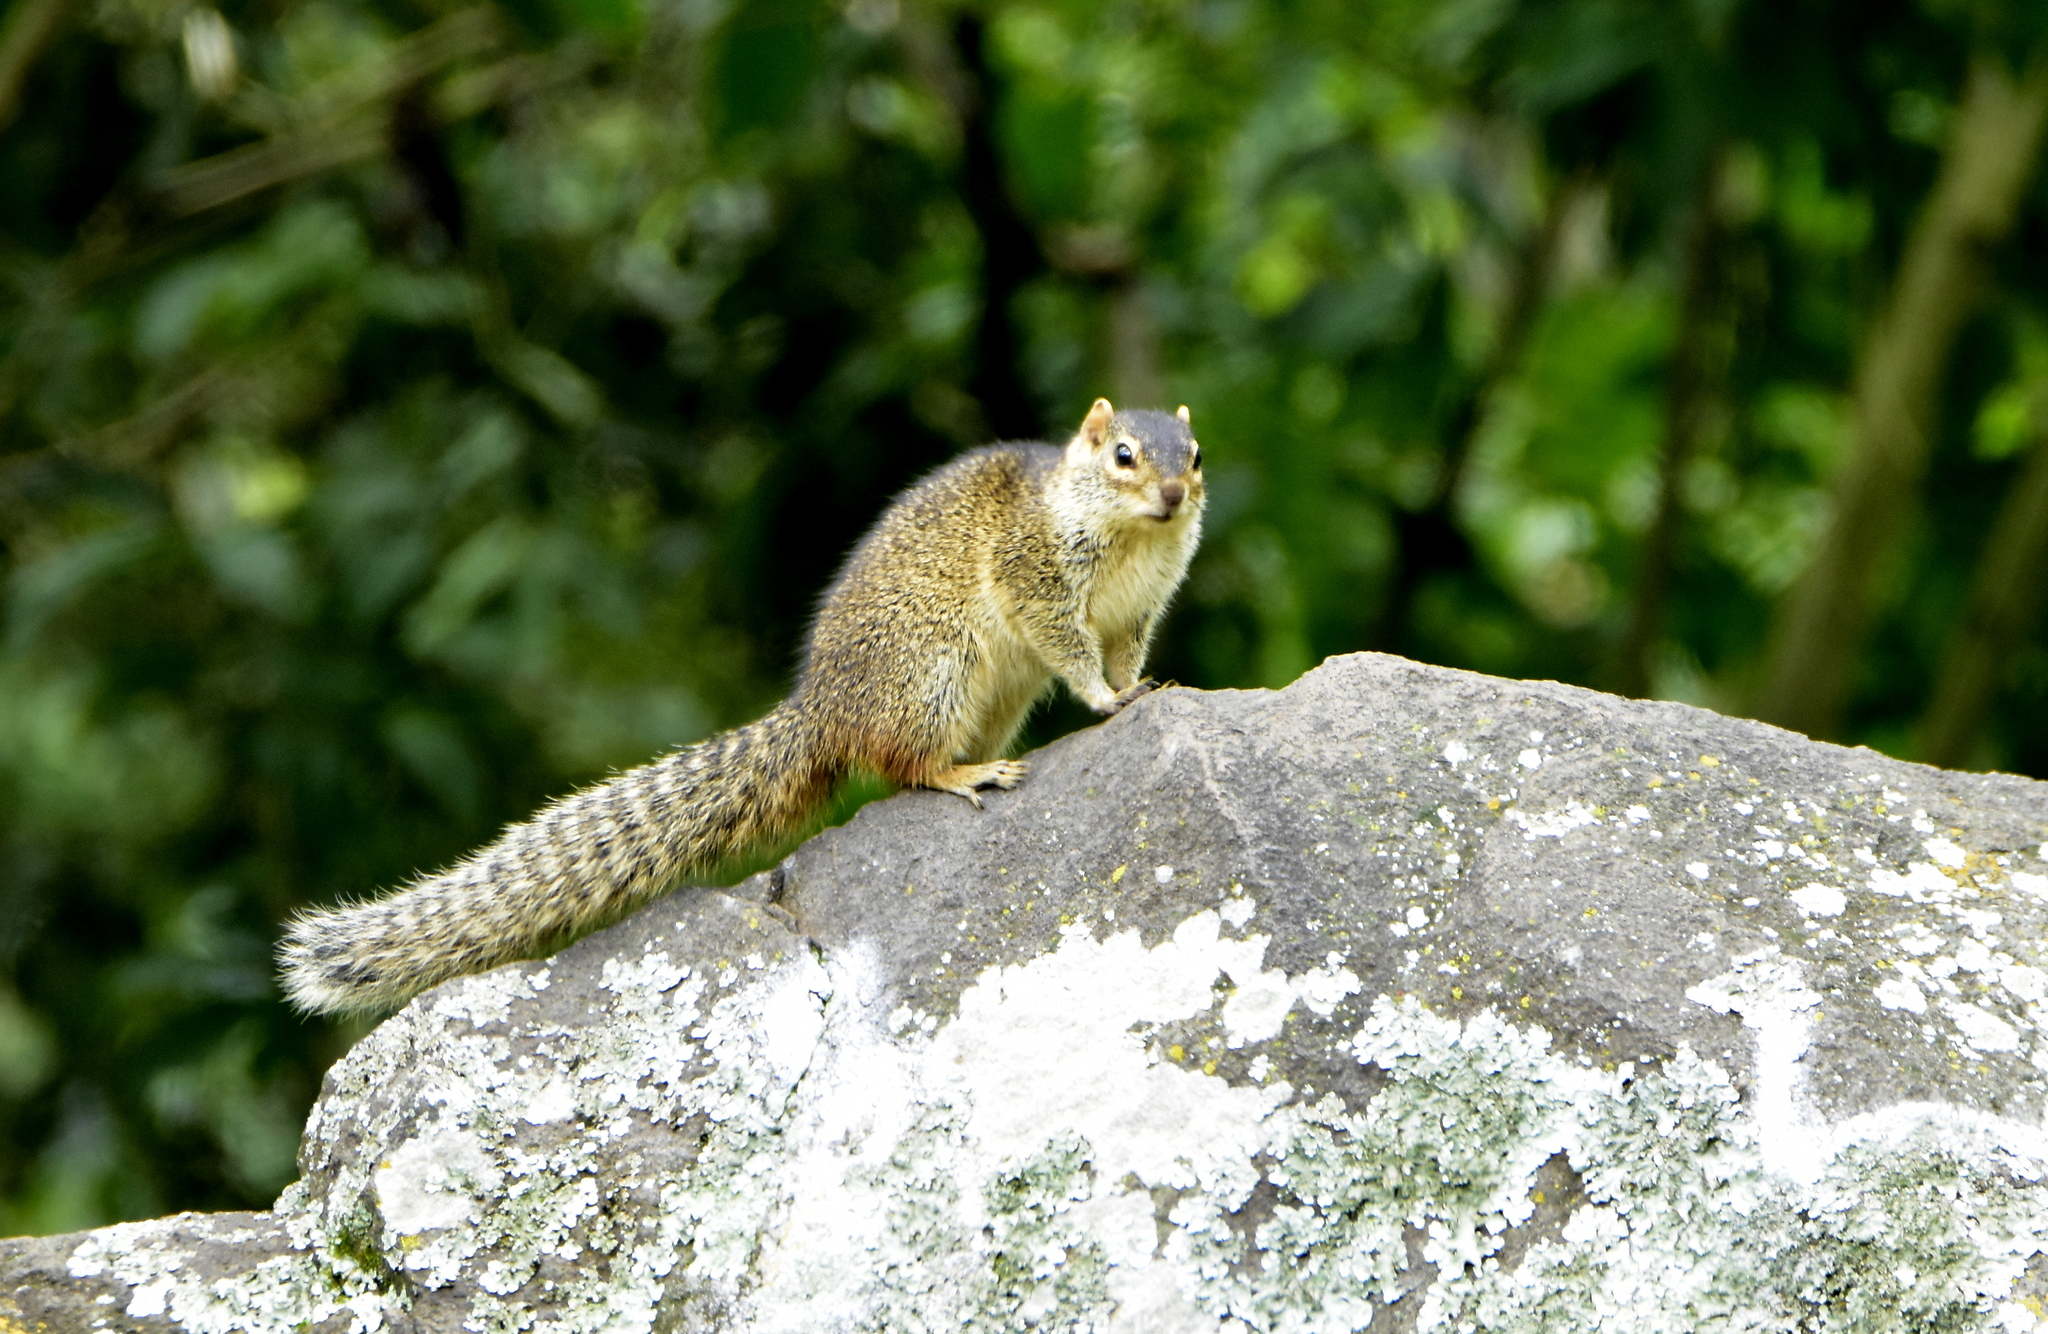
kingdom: Animalia
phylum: Chordata
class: Mammalia
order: Rodentia
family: Sciuridae
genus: Notocitellus
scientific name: Notocitellus annulatus
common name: Ring-tailed ground squirrel
